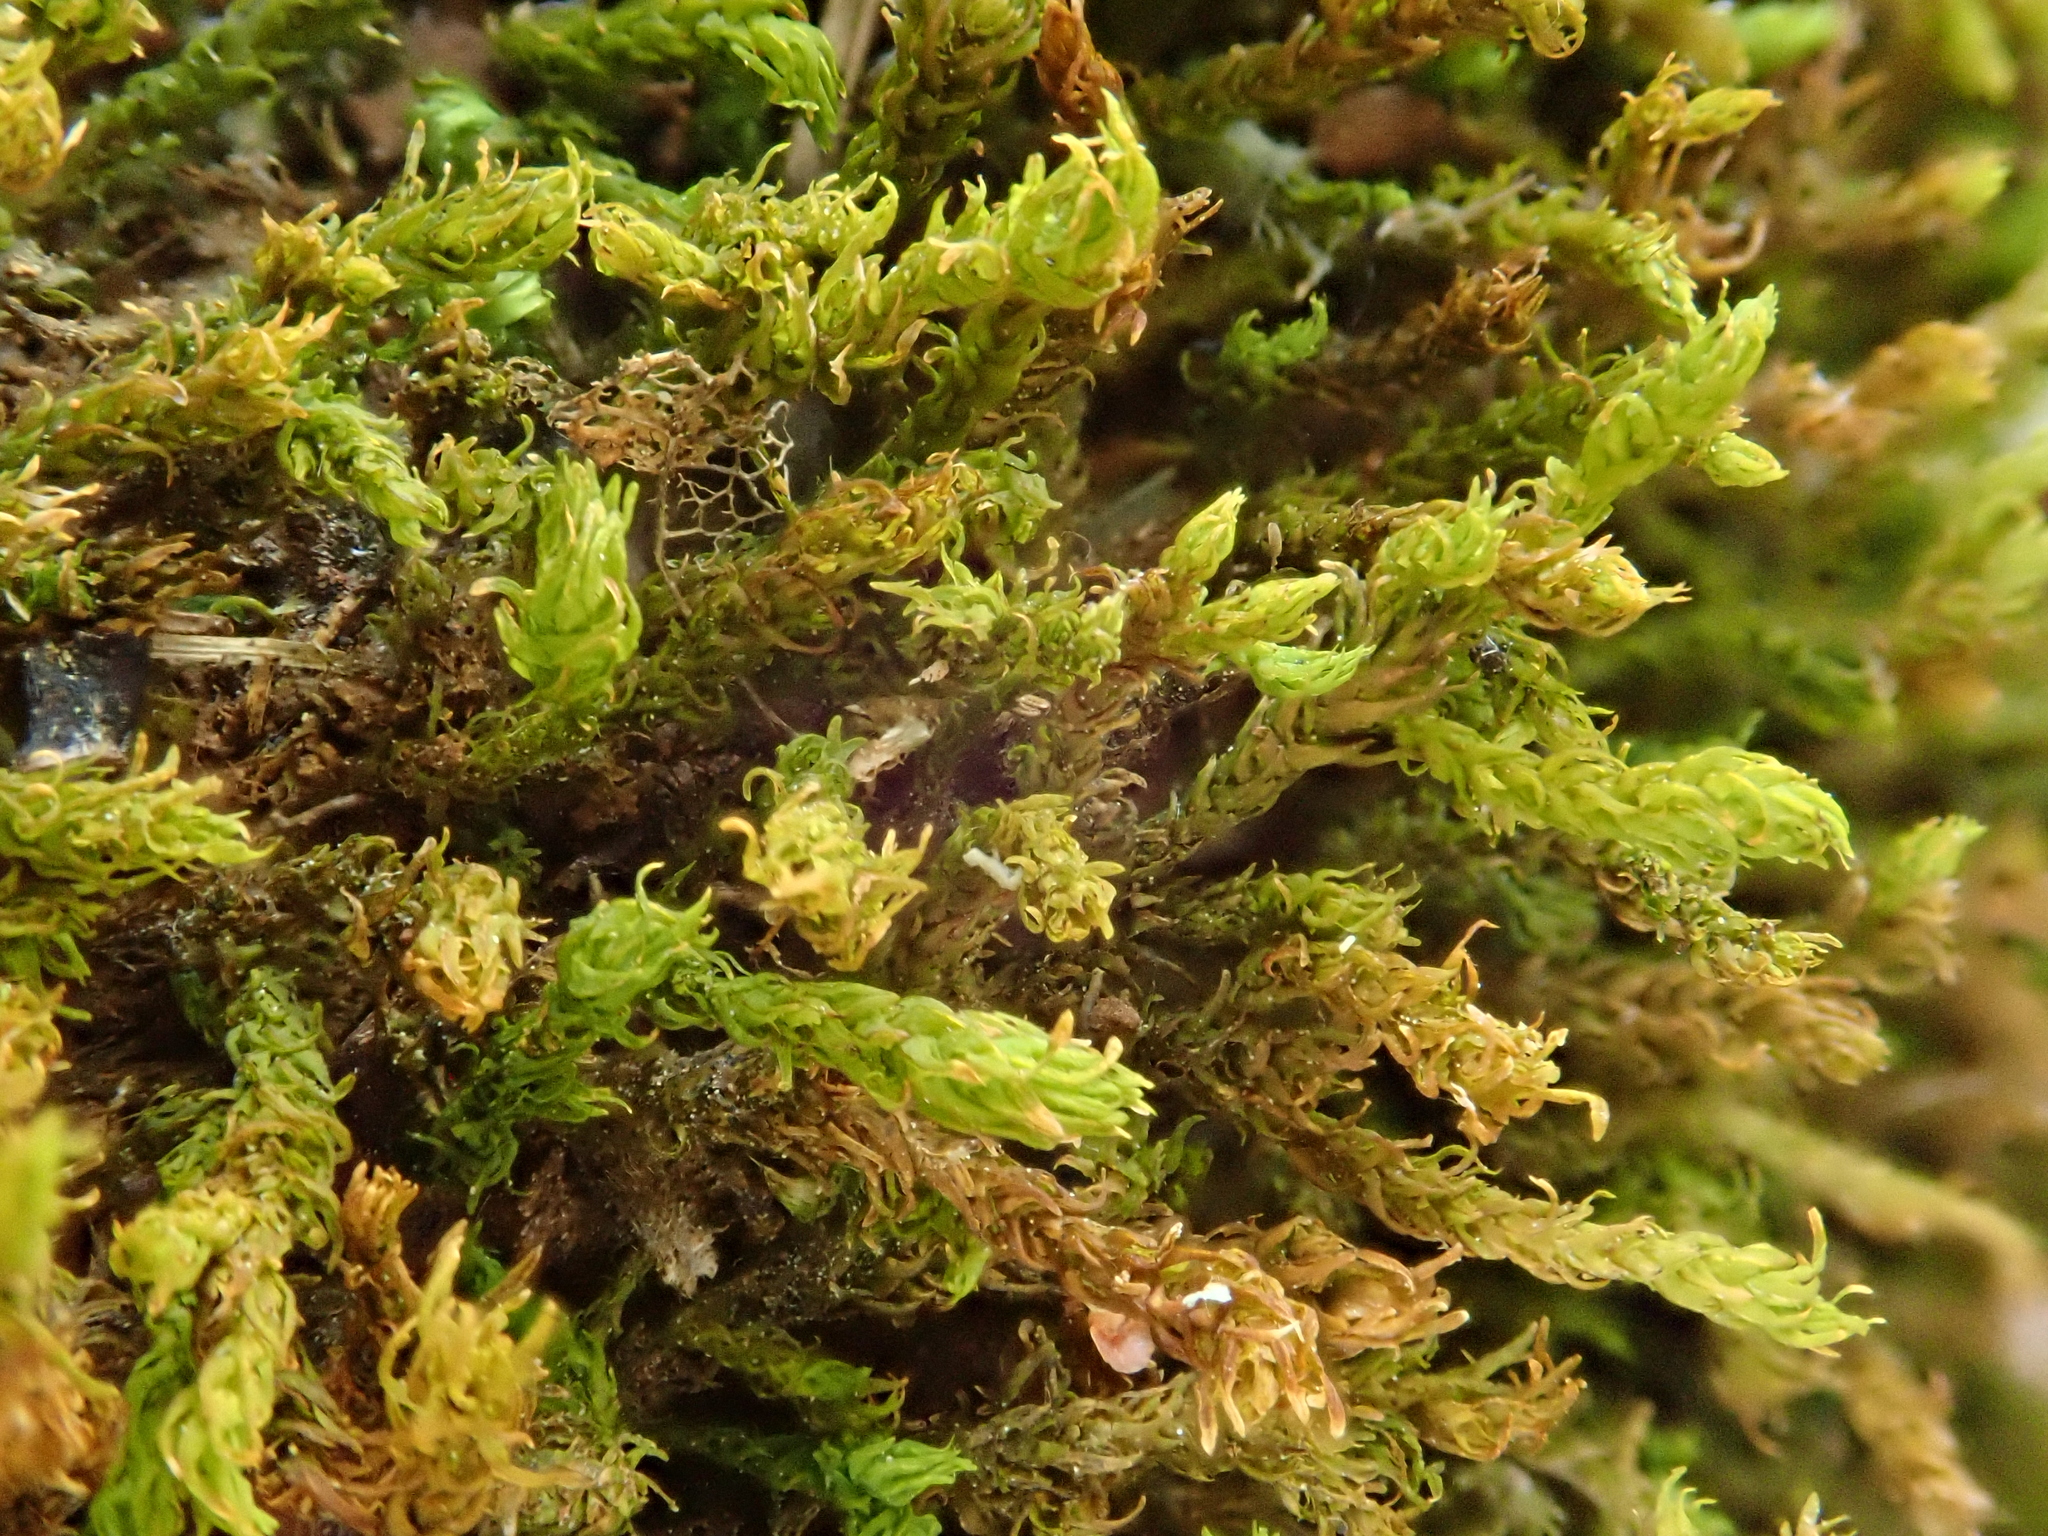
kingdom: Plantae
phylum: Bryophyta
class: Bryopsida
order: Hypnales
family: Anomodontaceae
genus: Anomodon
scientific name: Anomodon viticulosus
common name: Tall anomodon
